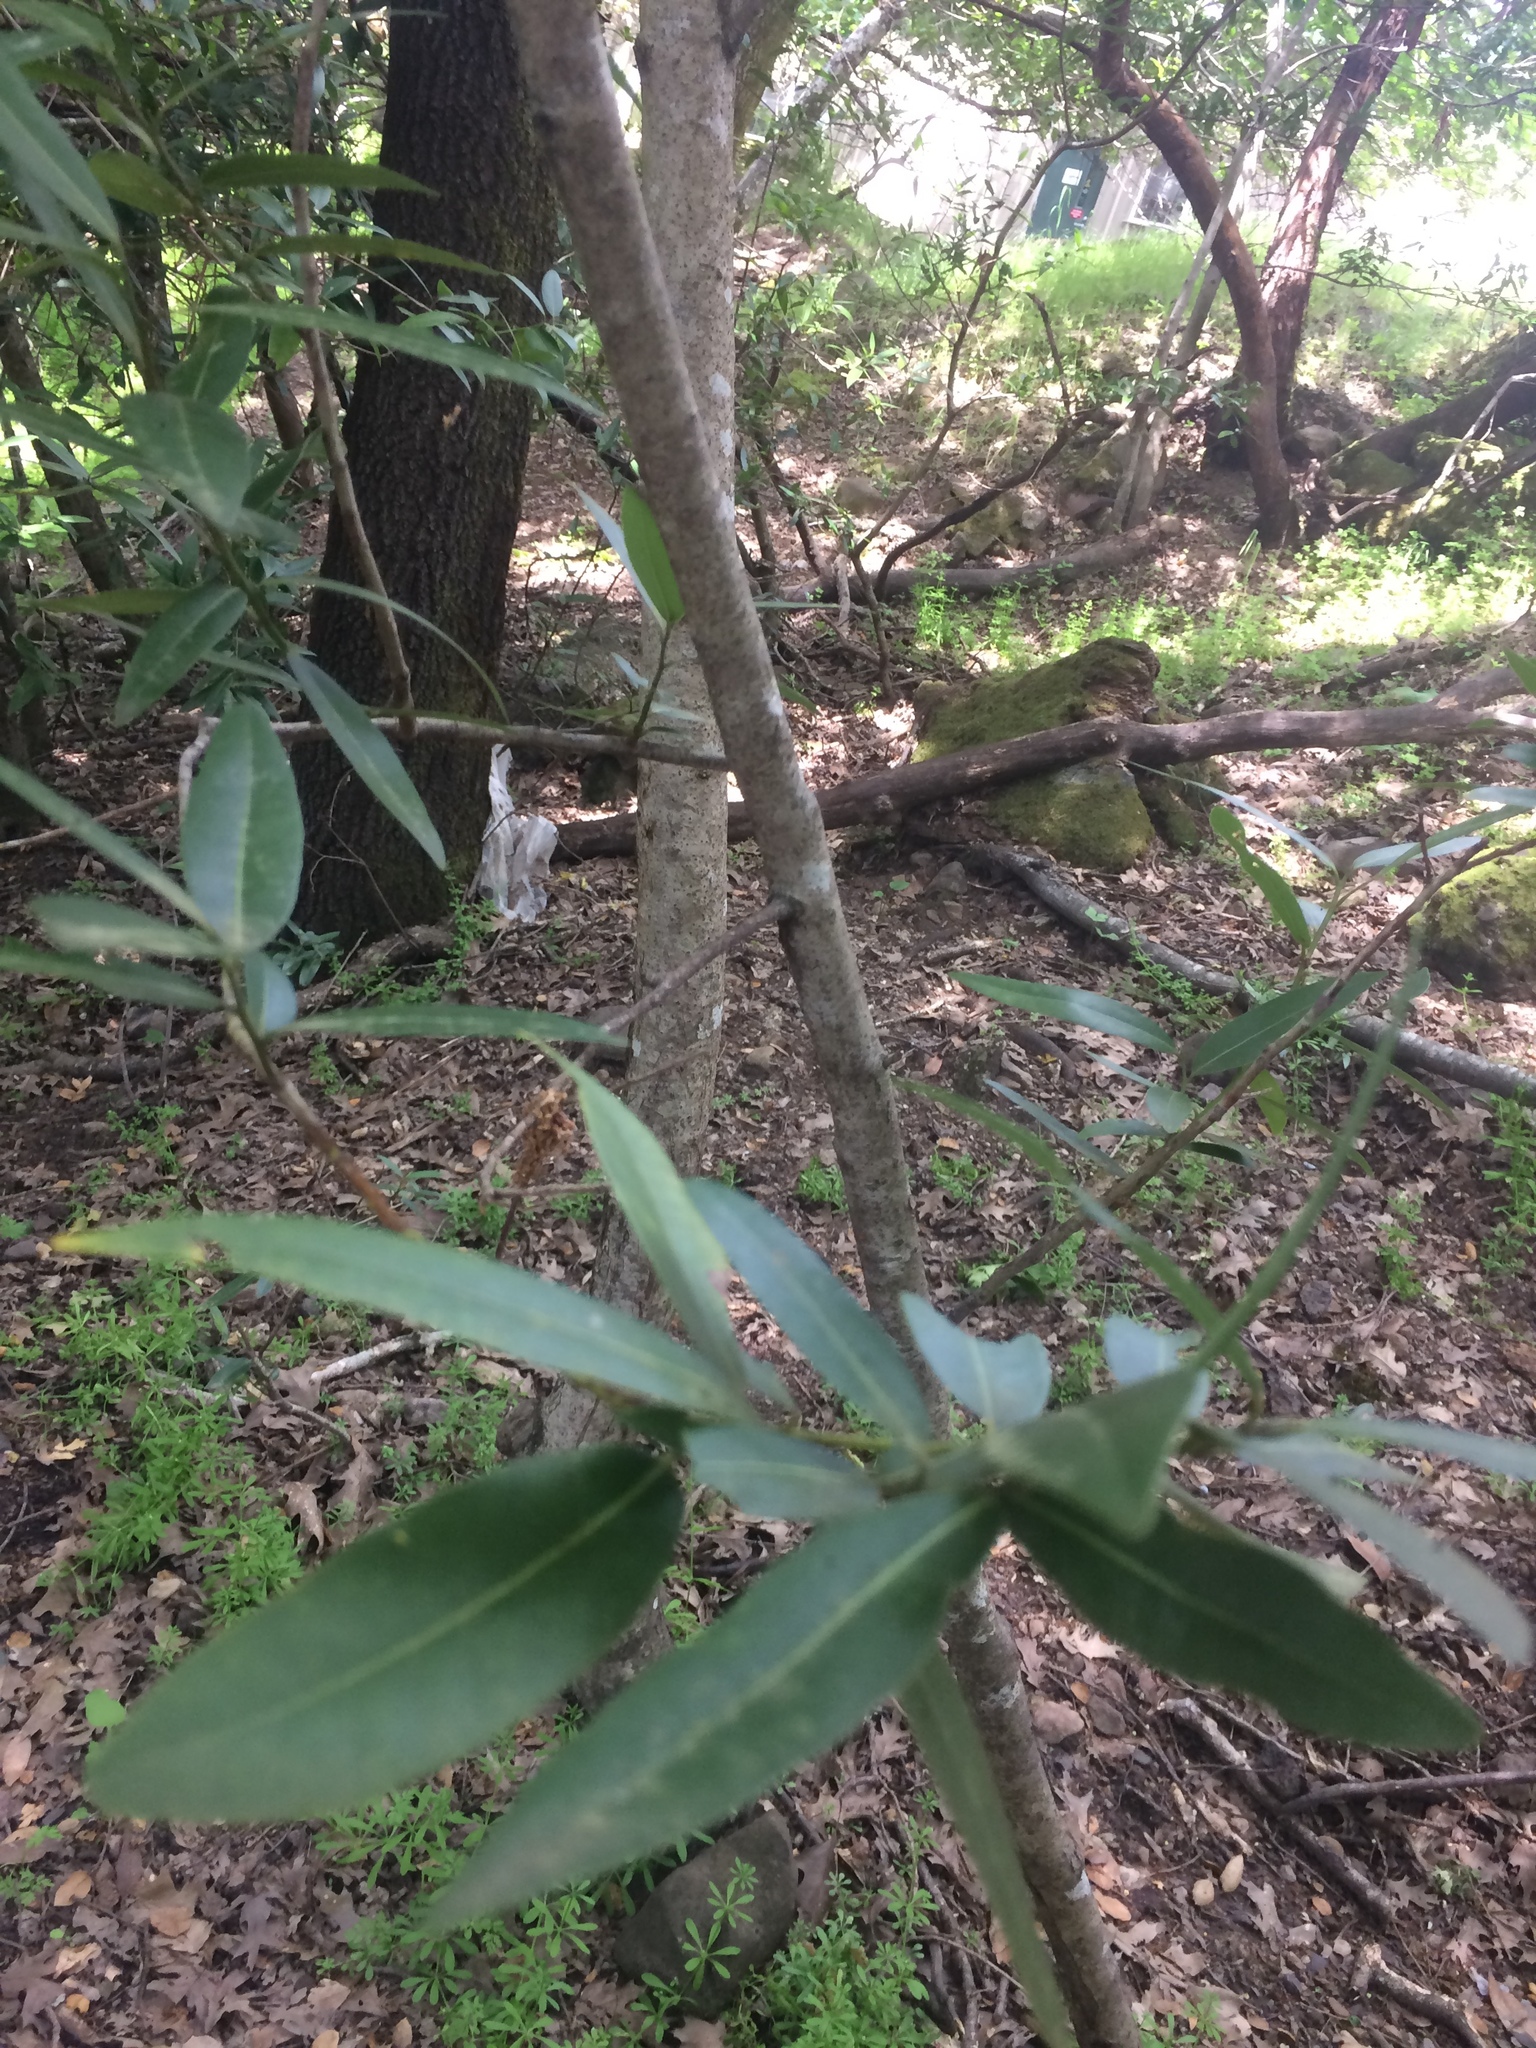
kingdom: Plantae
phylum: Tracheophyta
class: Magnoliopsida
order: Laurales
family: Lauraceae
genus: Umbellularia
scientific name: Umbellularia californica
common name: California bay
